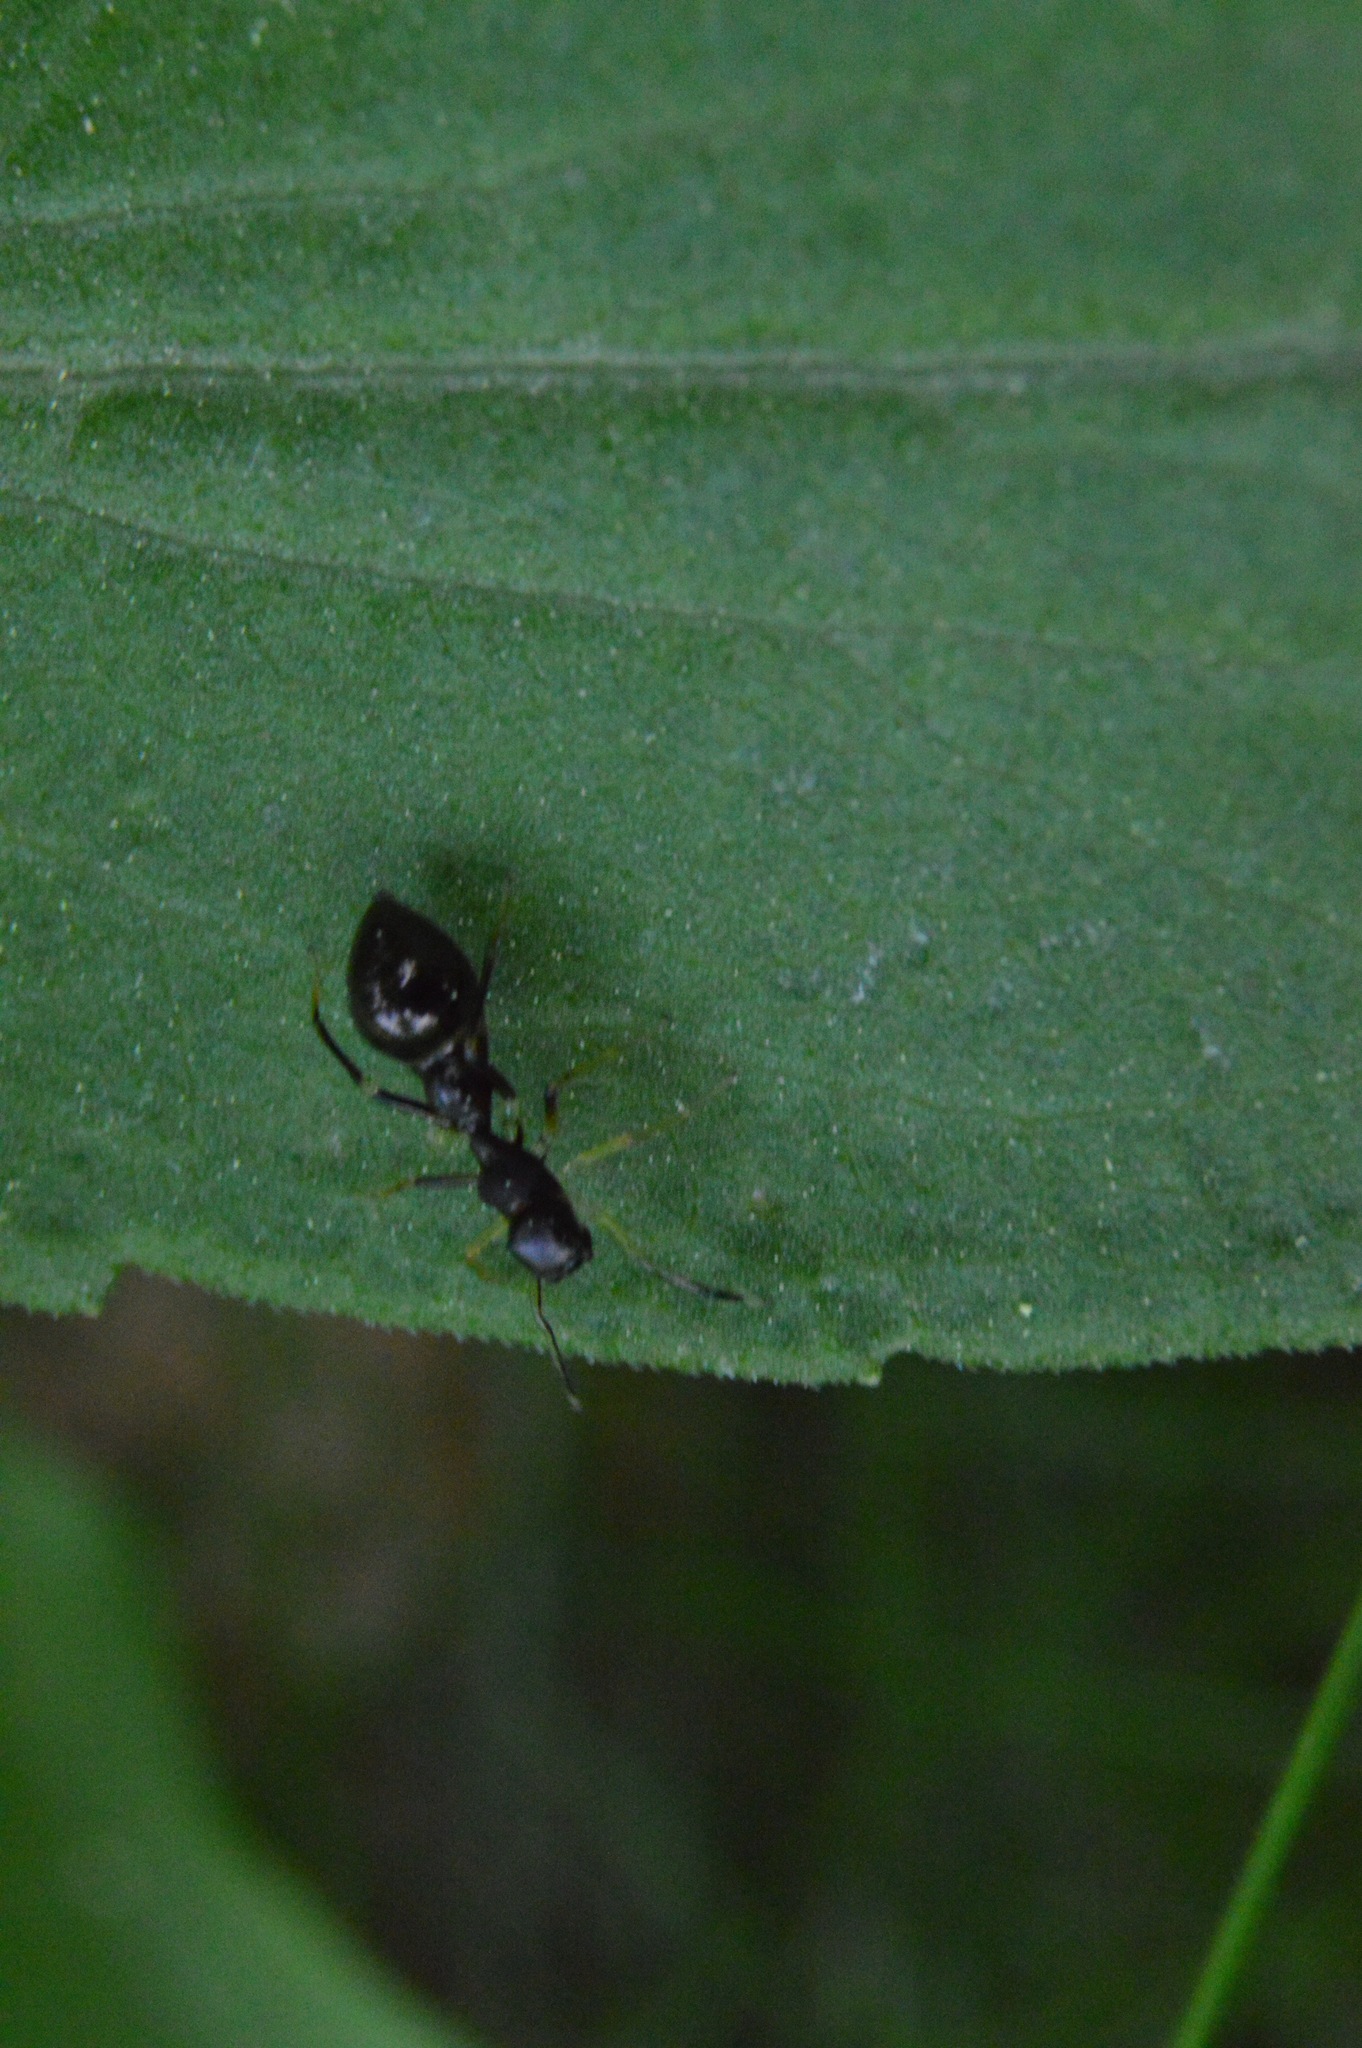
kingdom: Animalia
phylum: Arthropoda
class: Arachnida
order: Araneae
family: Salticidae
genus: Synemosyna
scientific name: Synemosyna formica
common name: Slender ant-mimic jumping spider
